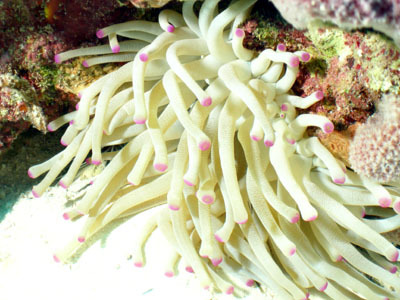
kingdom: Animalia
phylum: Cnidaria
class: Anthozoa
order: Actiniaria
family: Actiniidae
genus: Condylactis
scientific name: Condylactis gigantea
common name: Giant caribbean anemone
